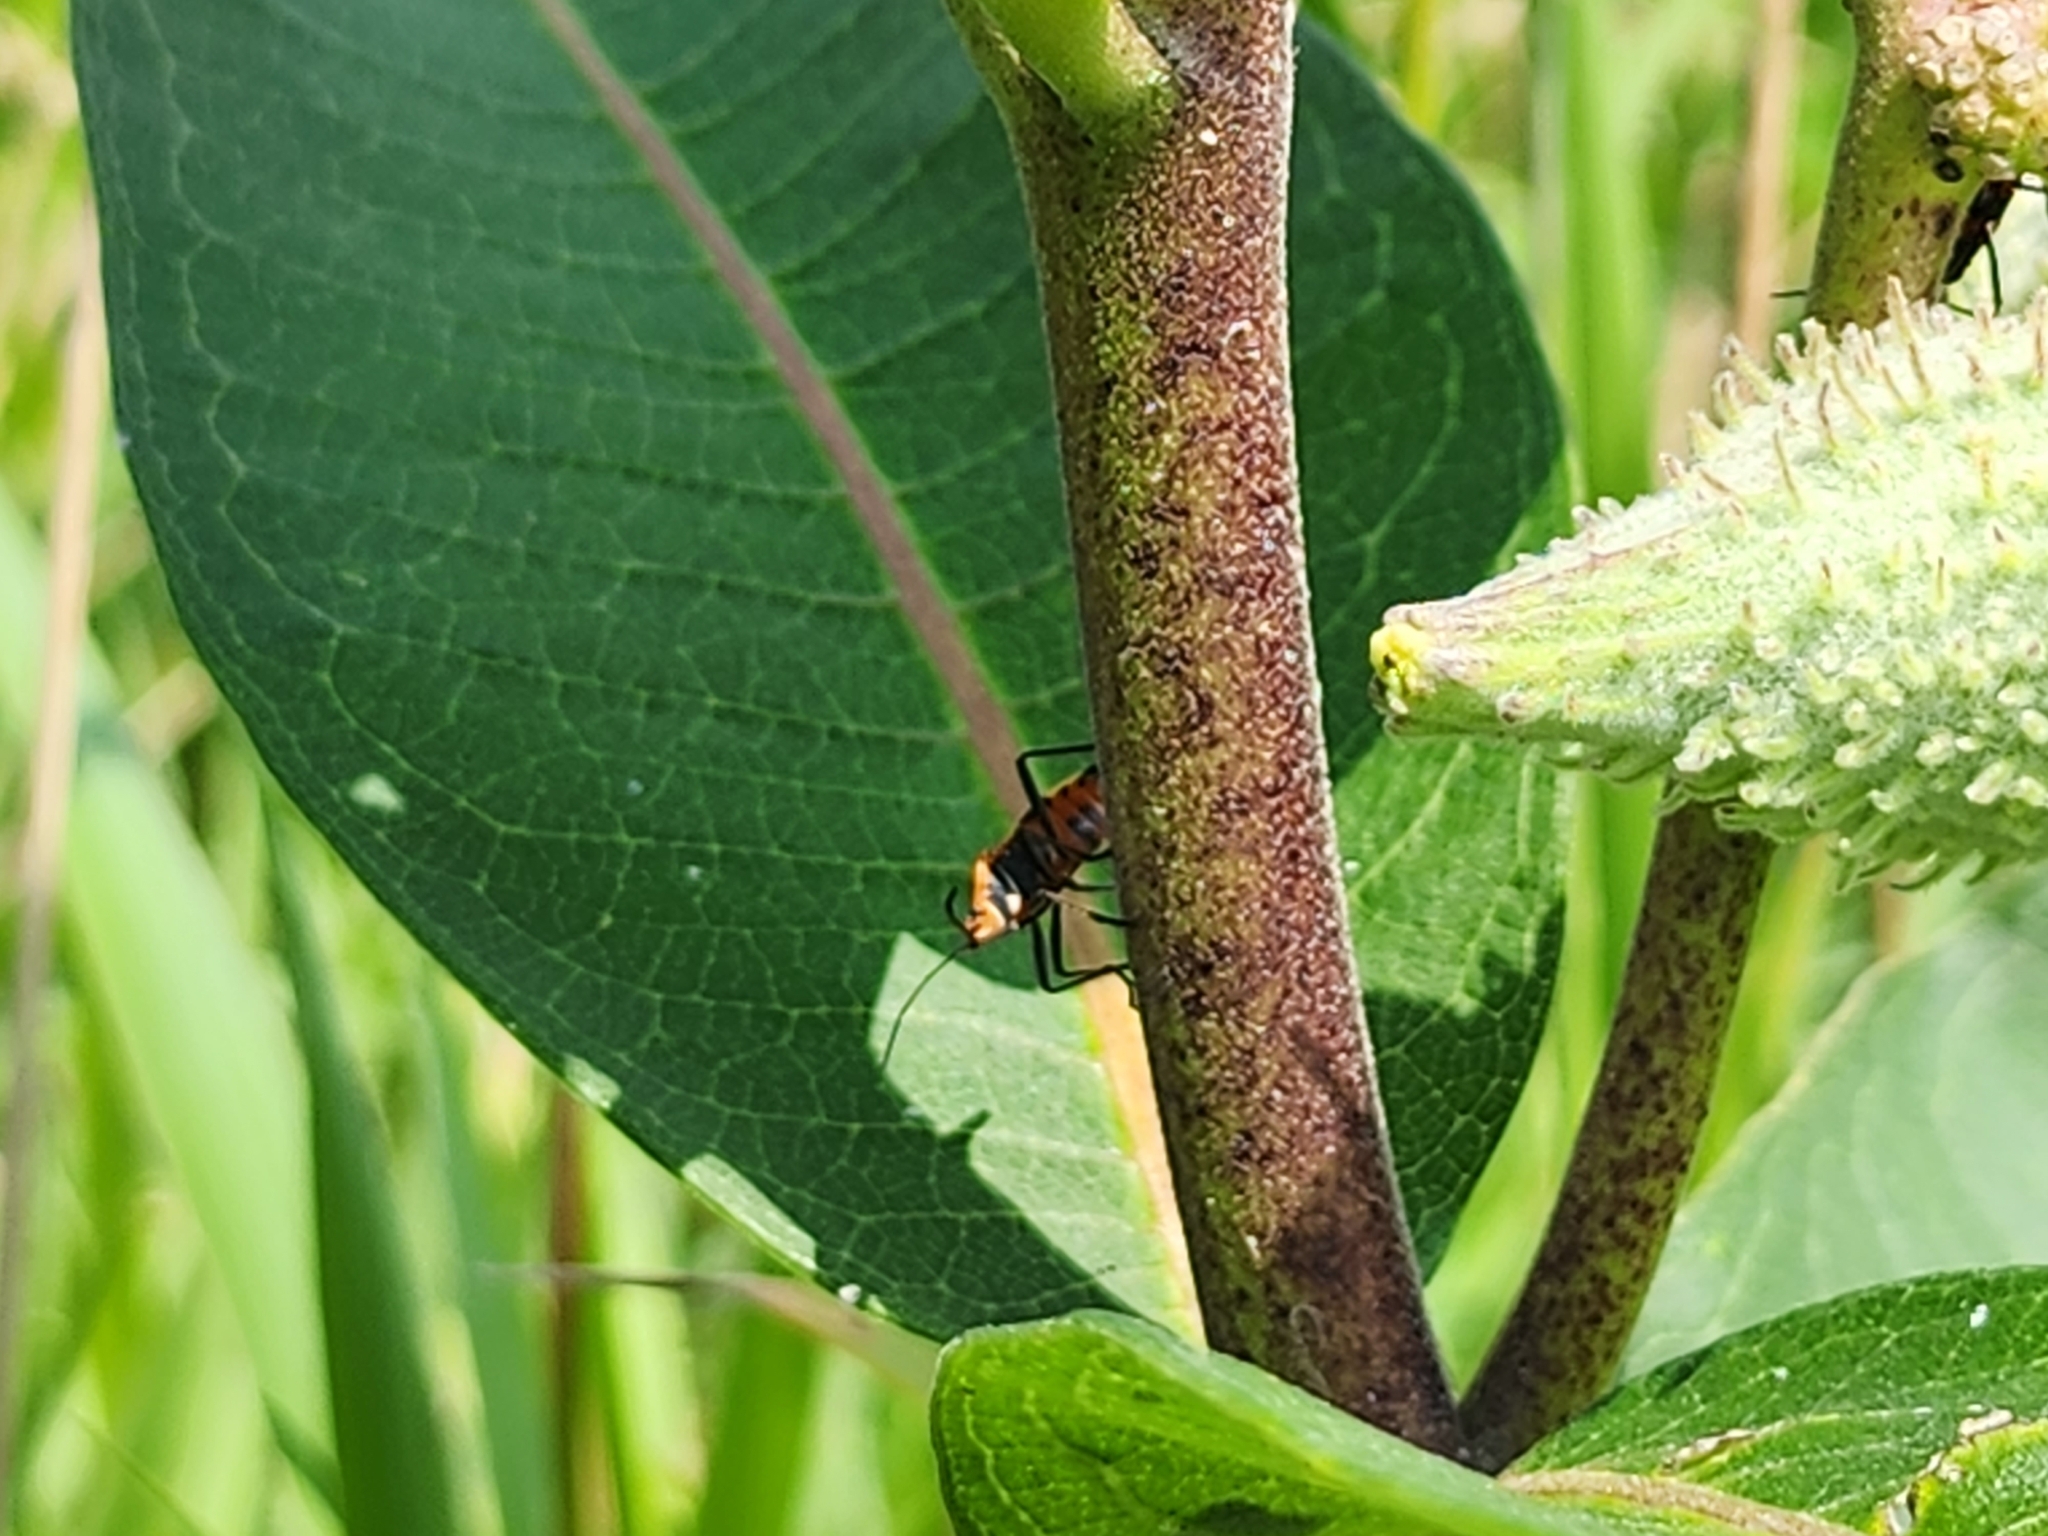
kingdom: Animalia
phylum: Arthropoda
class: Insecta
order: Hemiptera
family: Lygaeidae
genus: Oncopeltus
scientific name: Oncopeltus fasciatus
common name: Large milkweed bug
